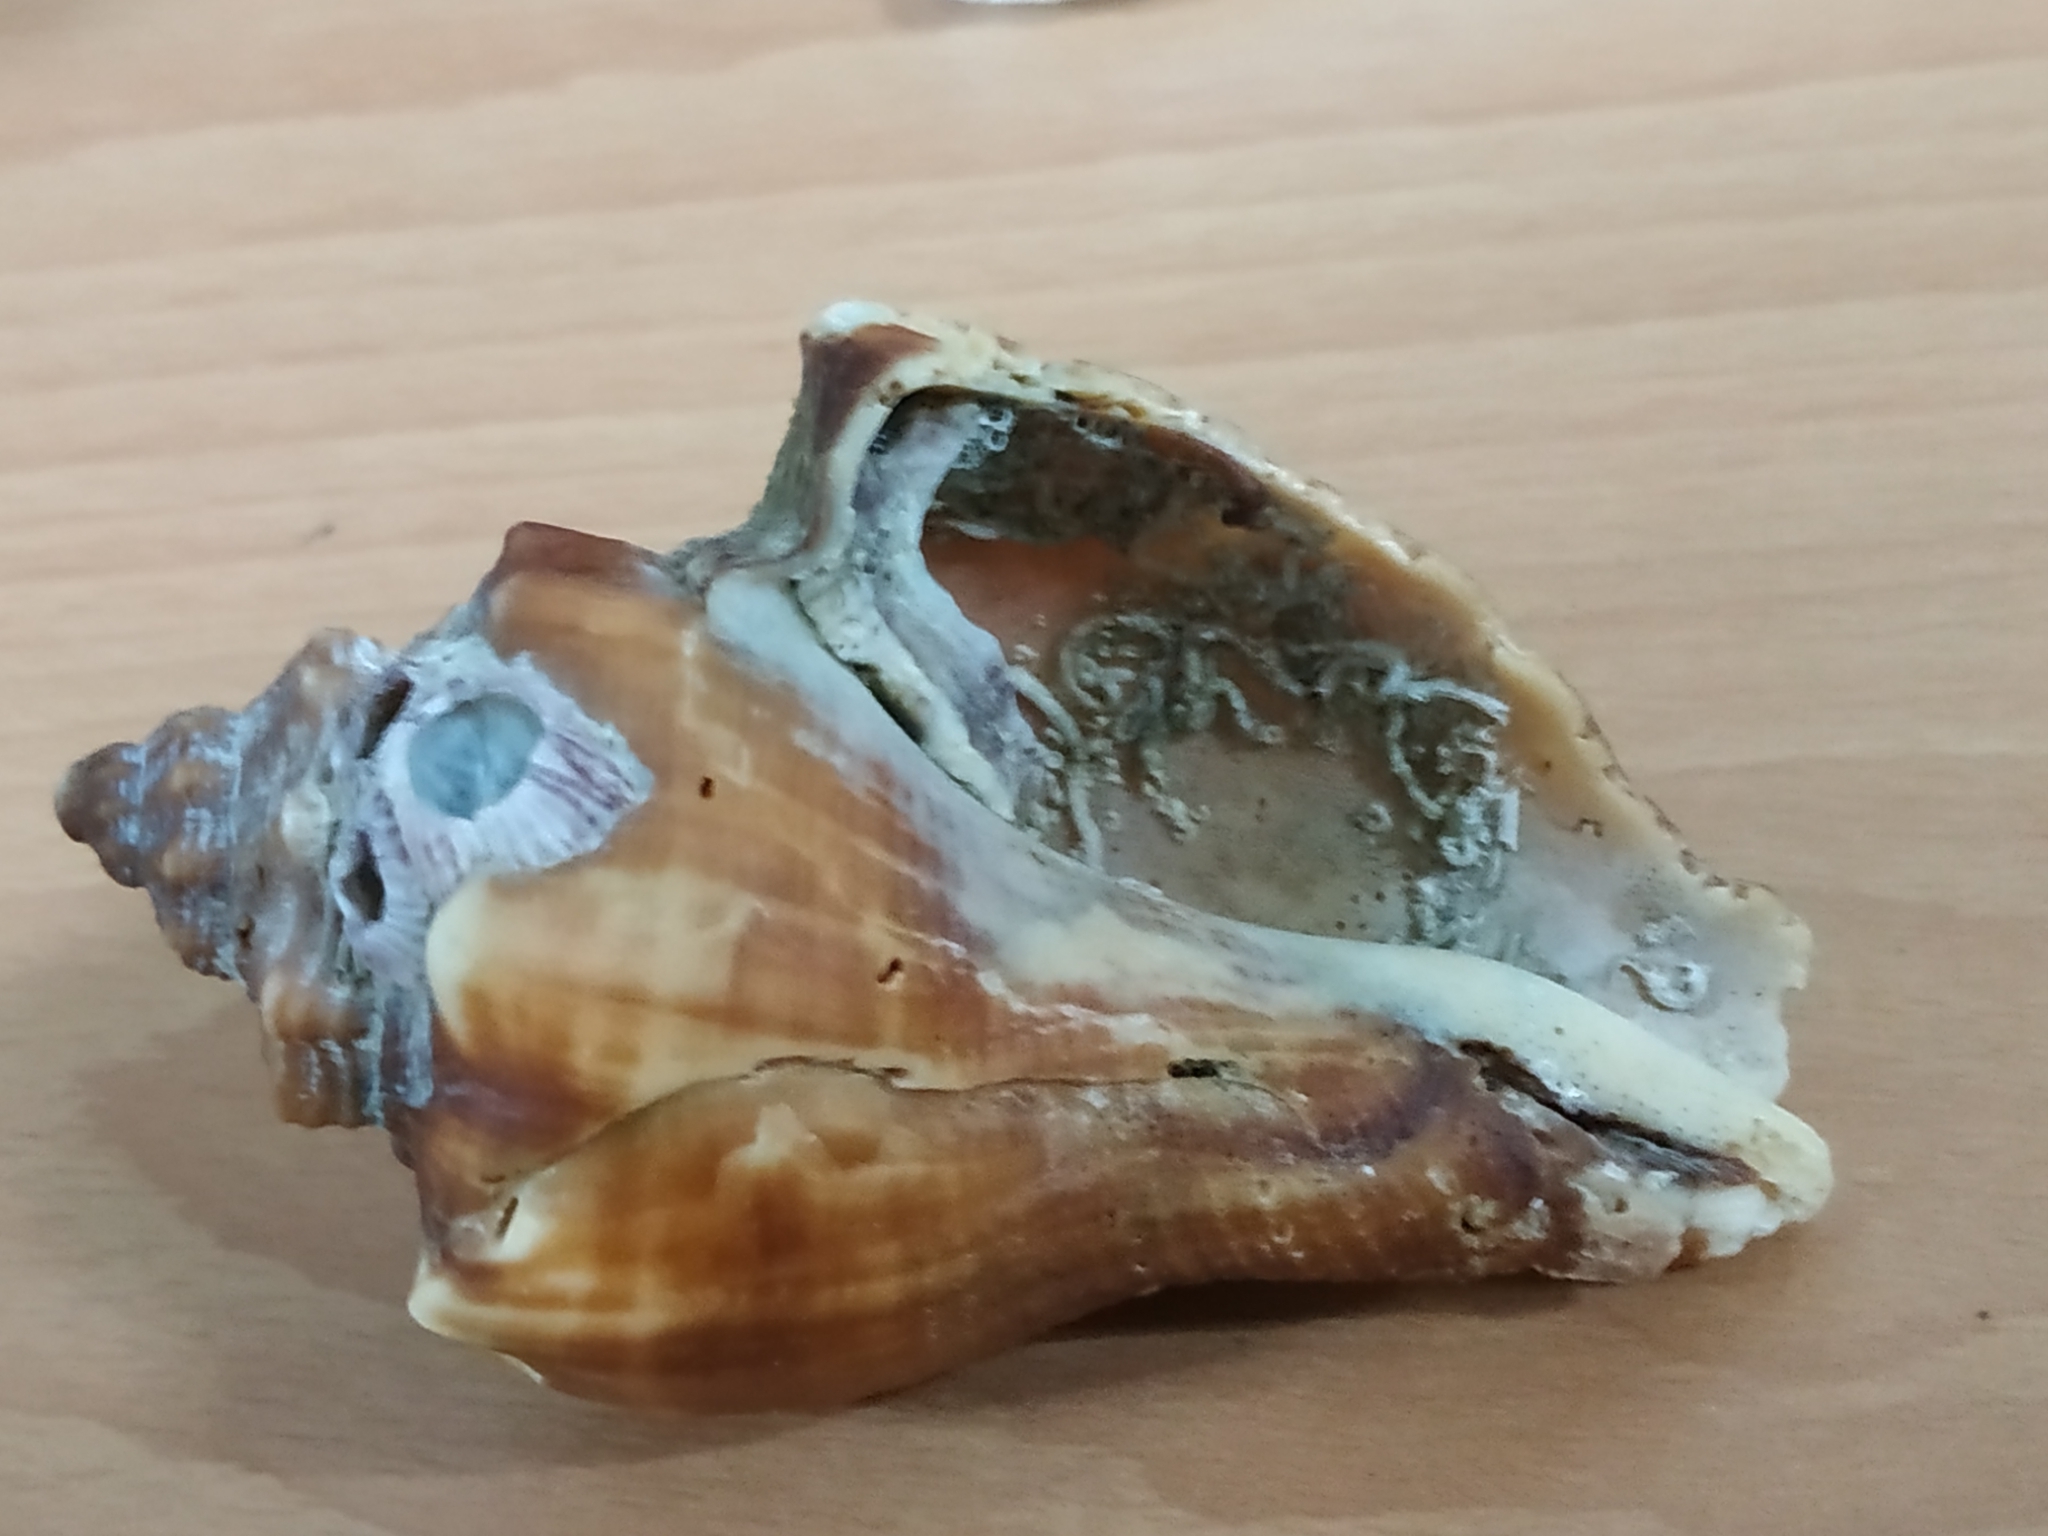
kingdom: Animalia
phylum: Mollusca
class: Gastropoda
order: Neogastropoda
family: Melongenidae
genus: Volegalea
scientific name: Volegalea cochlidium
